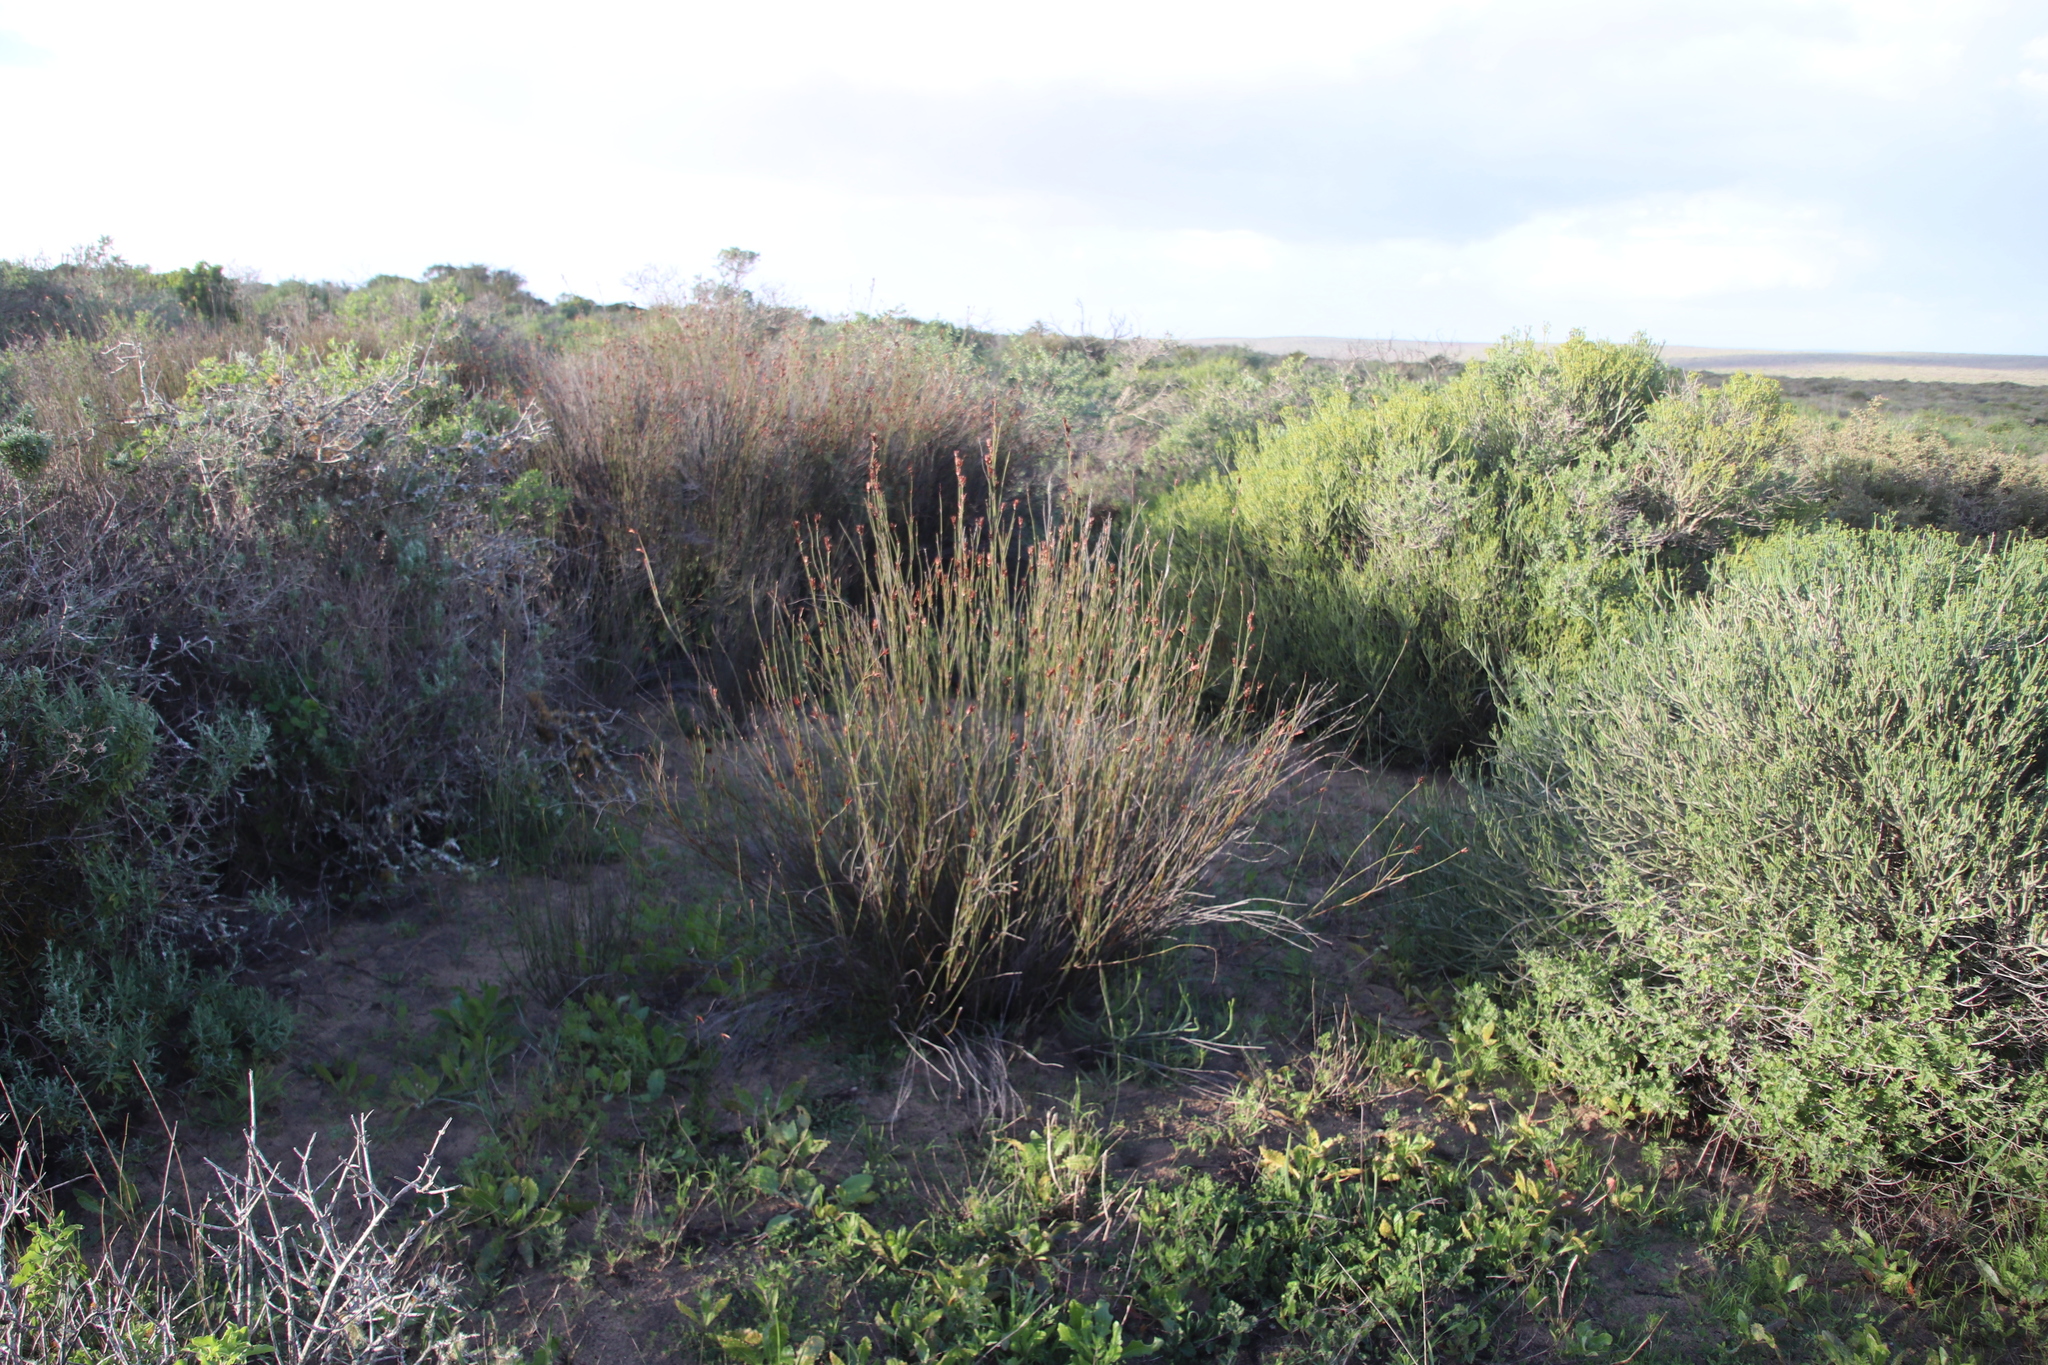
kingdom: Plantae
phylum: Tracheophyta
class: Liliopsida
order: Poales
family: Restionaceae
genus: Willdenowia
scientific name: Willdenowia incurvata
